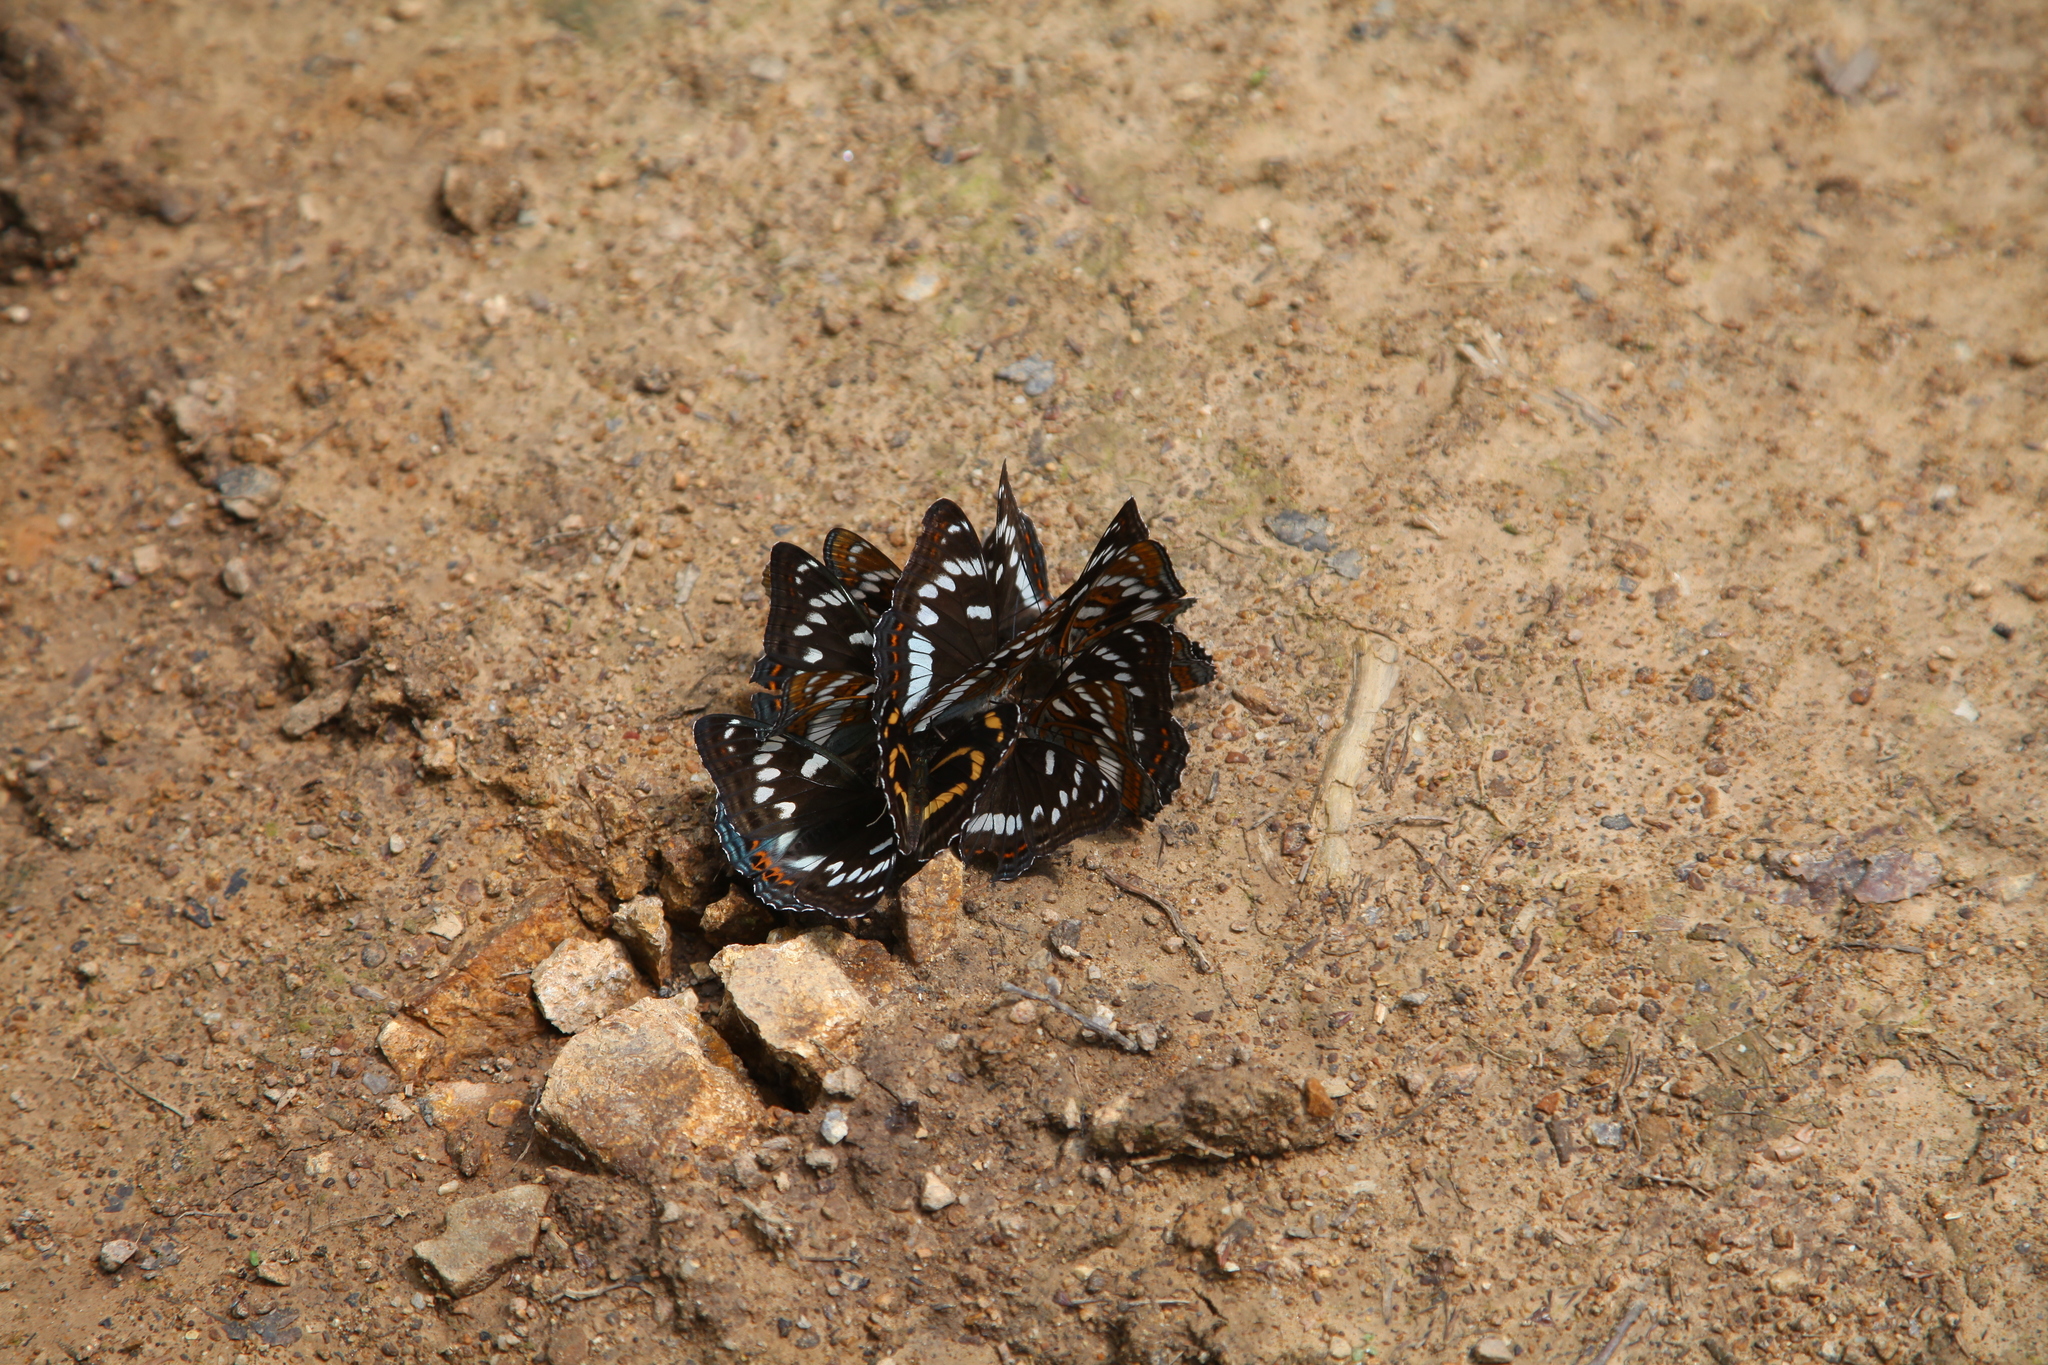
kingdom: Animalia
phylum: Arthropoda
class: Insecta
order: Lepidoptera
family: Nymphalidae
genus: Limenitis
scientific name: Limenitis populi
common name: Poplar admiral
